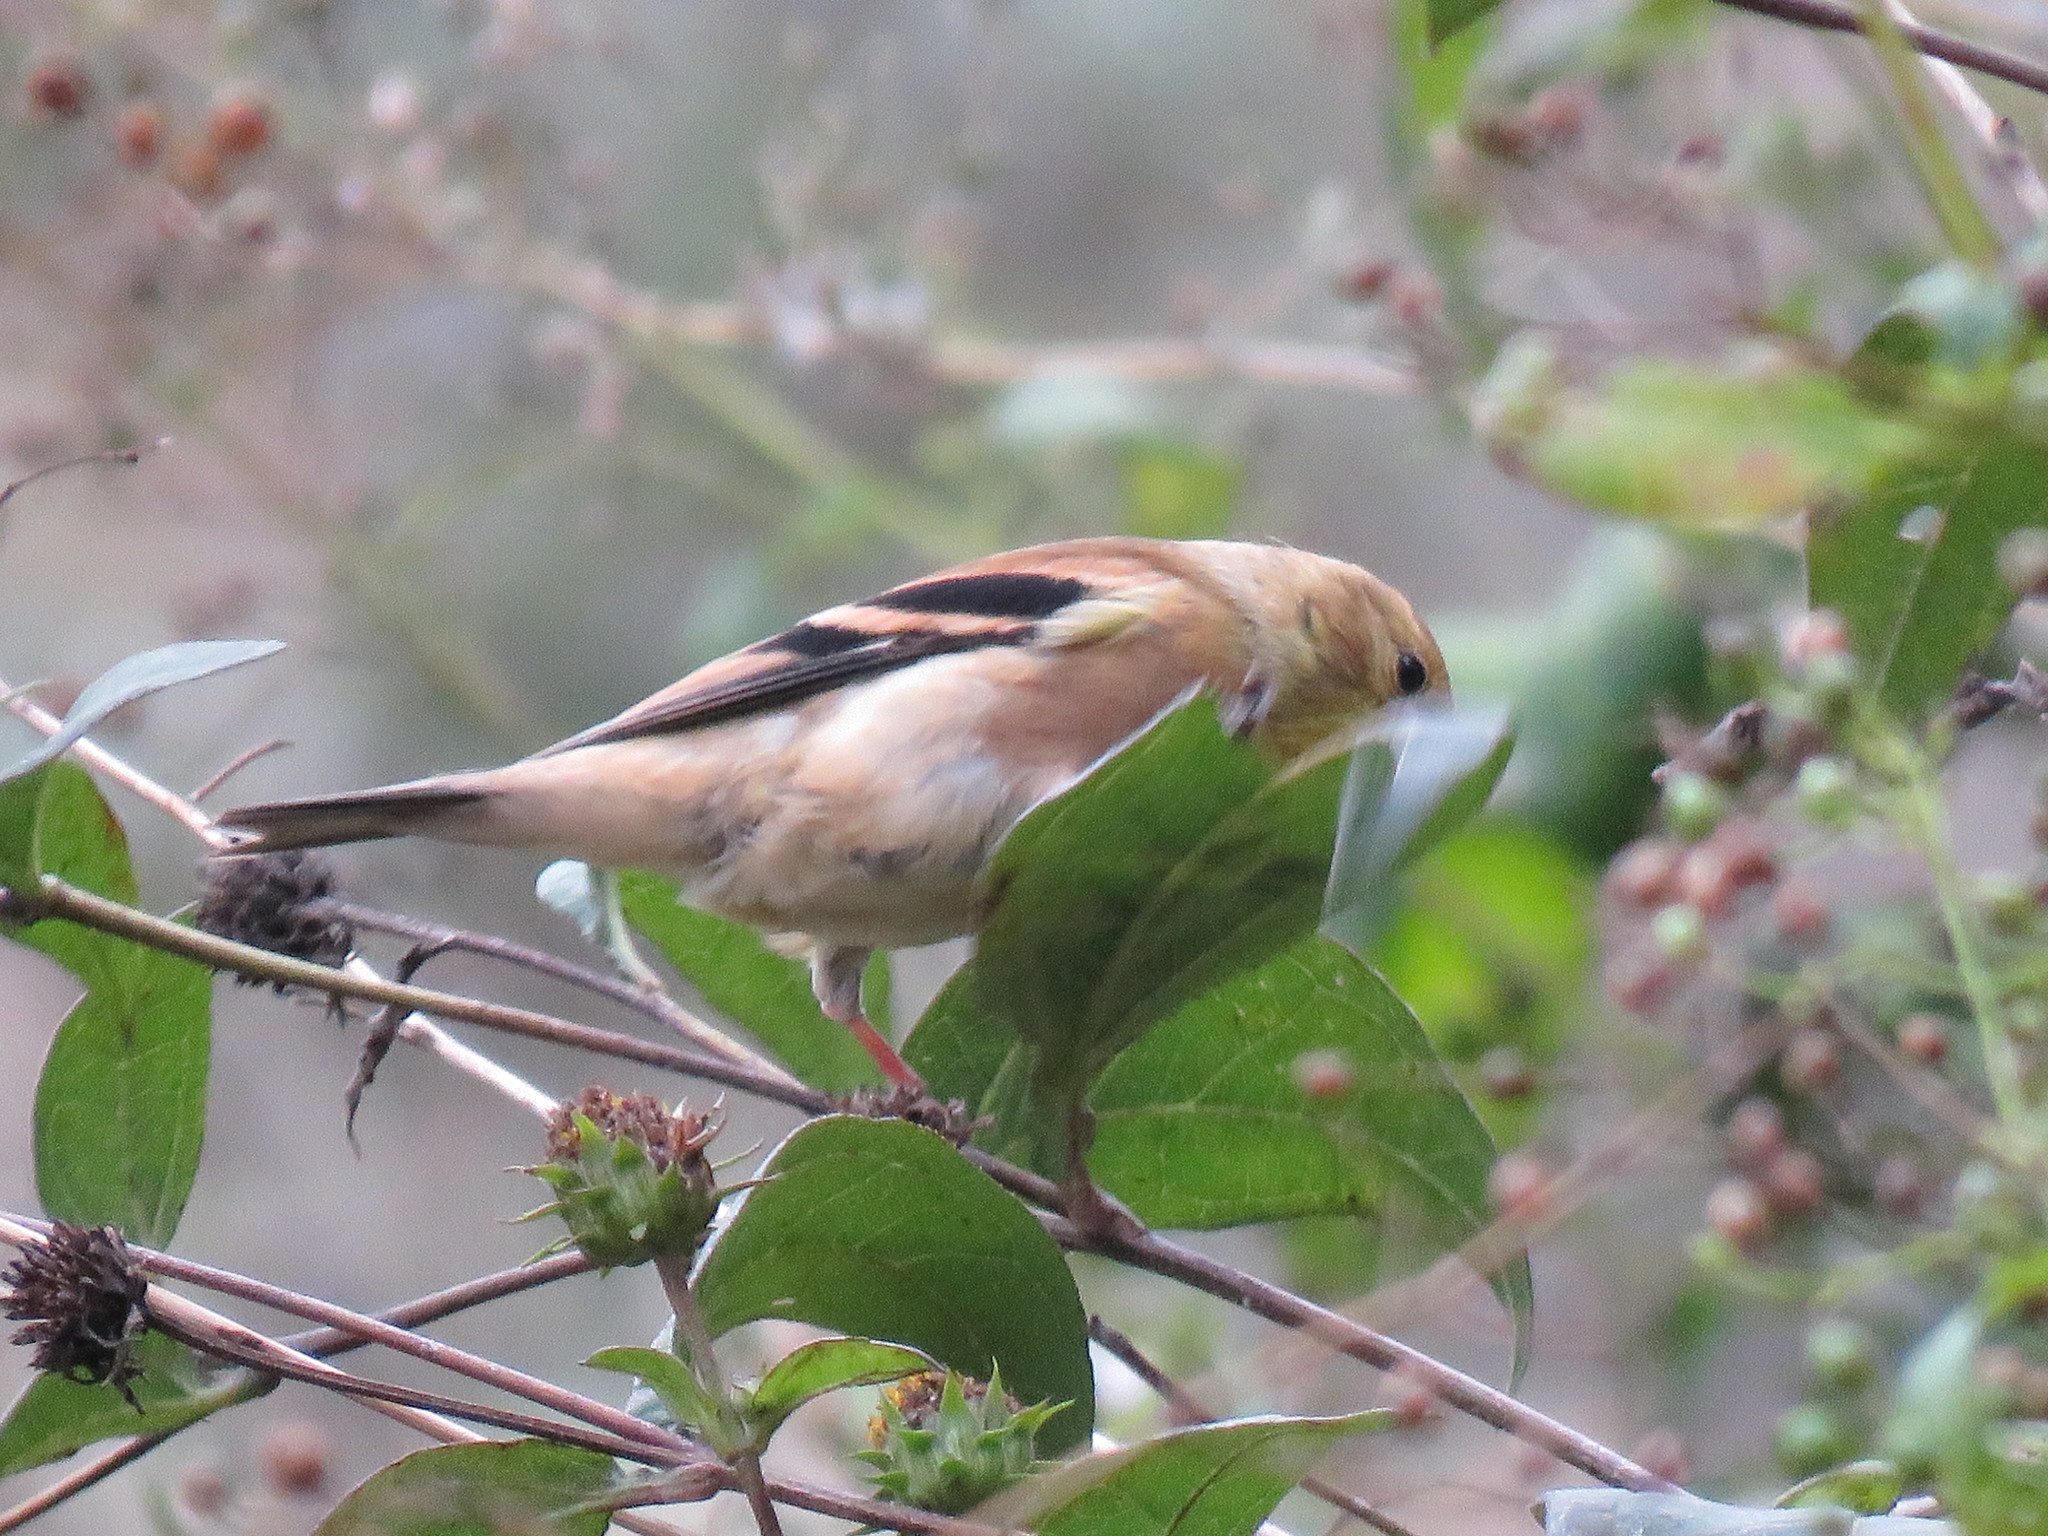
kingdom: Animalia
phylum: Chordata
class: Aves
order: Passeriformes
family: Fringillidae
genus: Spinus
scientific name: Spinus tristis
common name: American goldfinch
